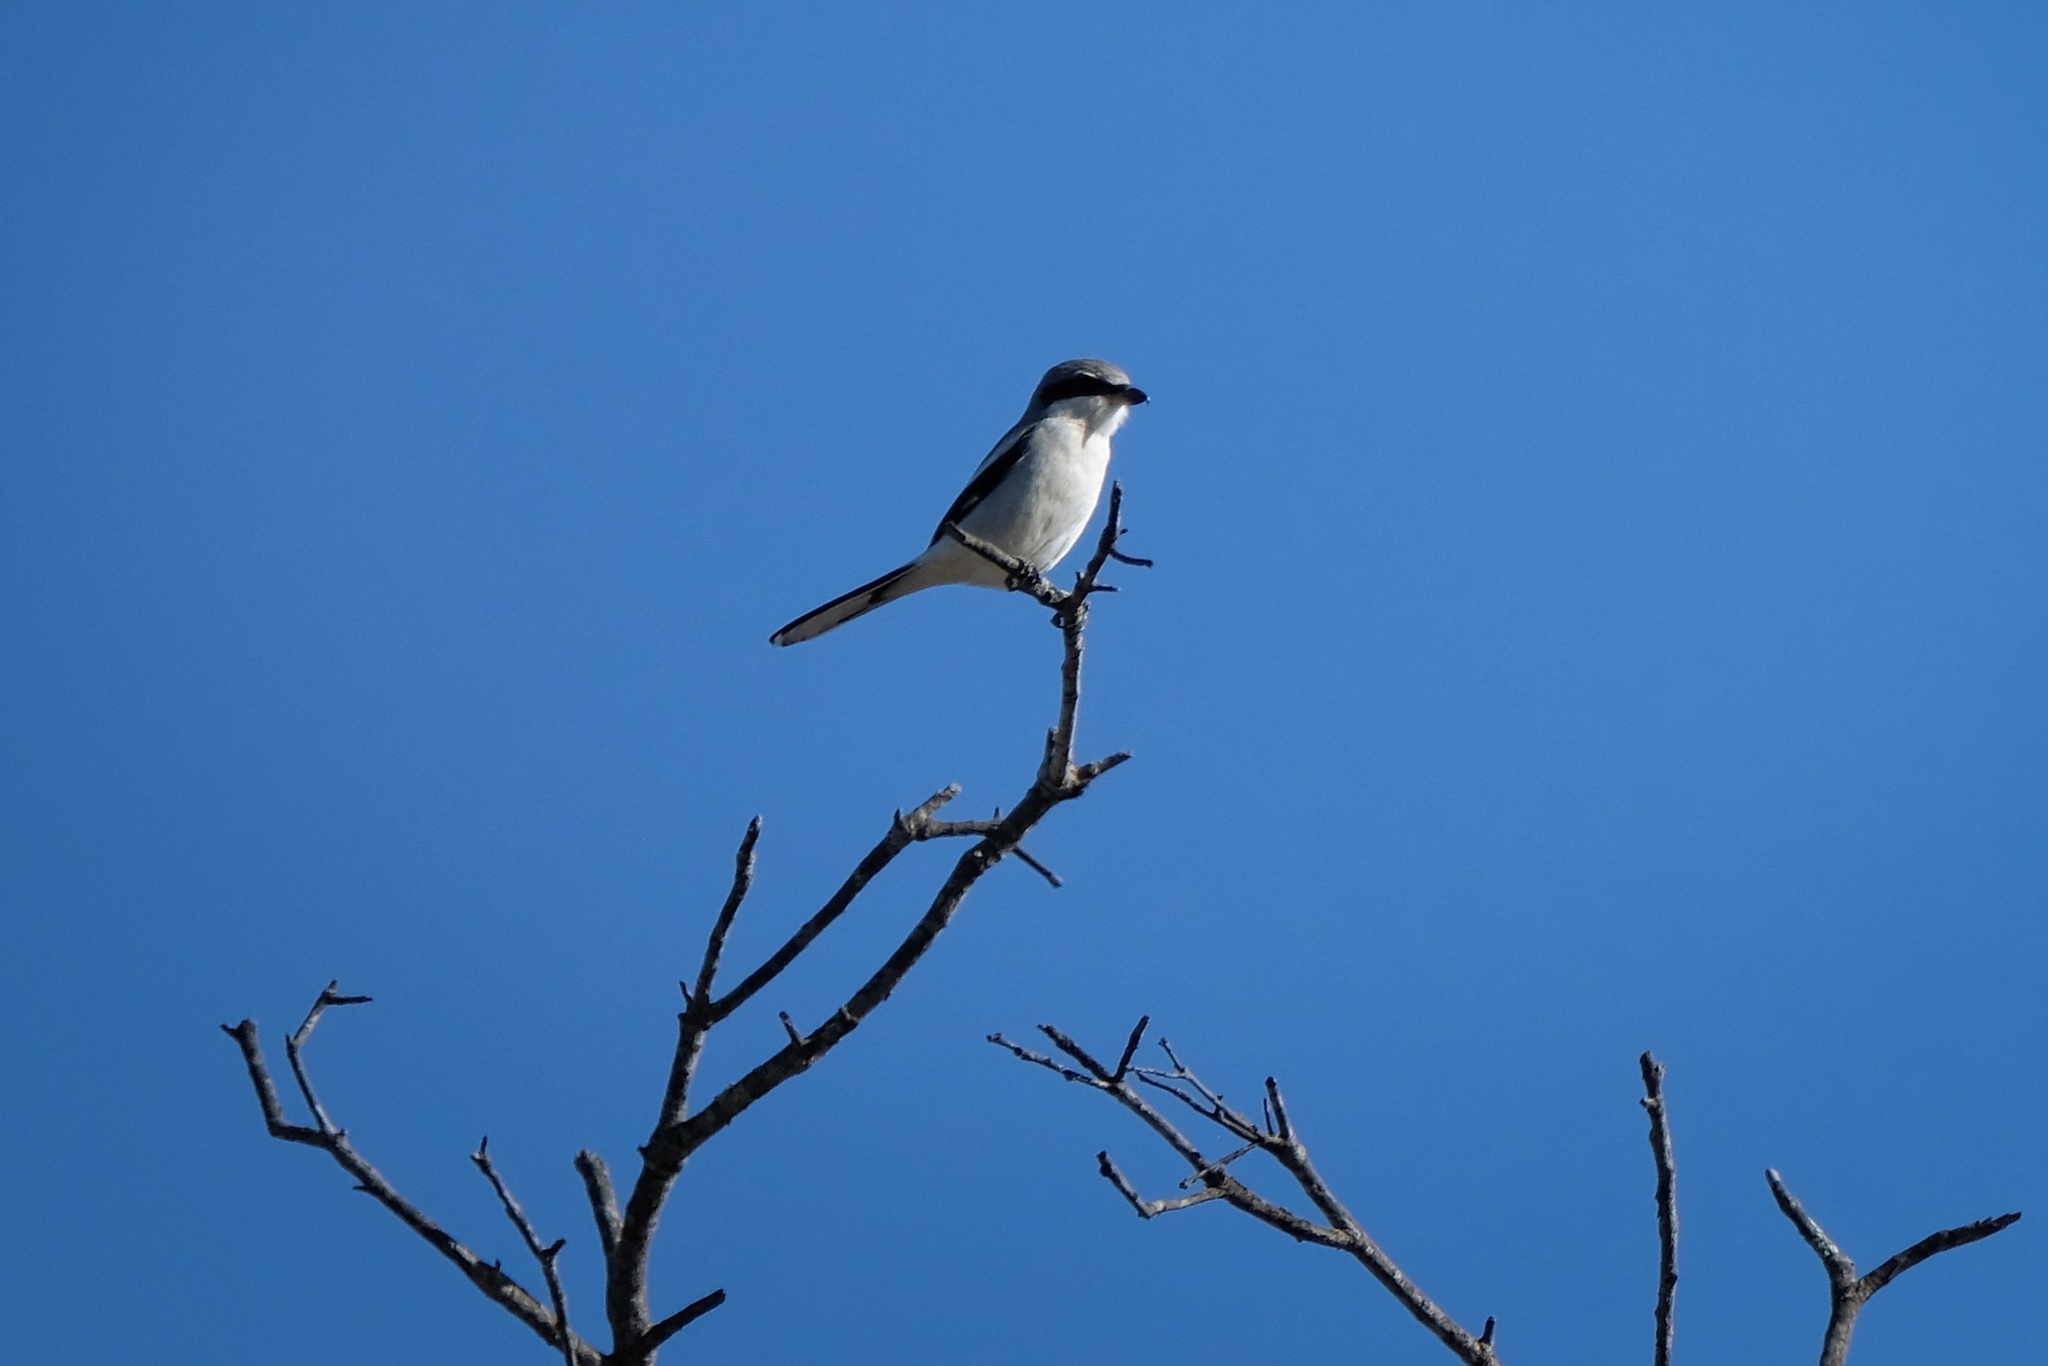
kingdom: Animalia
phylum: Chordata
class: Aves
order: Passeriformes
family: Laniidae
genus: Lanius
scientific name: Lanius ludovicianus
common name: Loggerhead shrike
